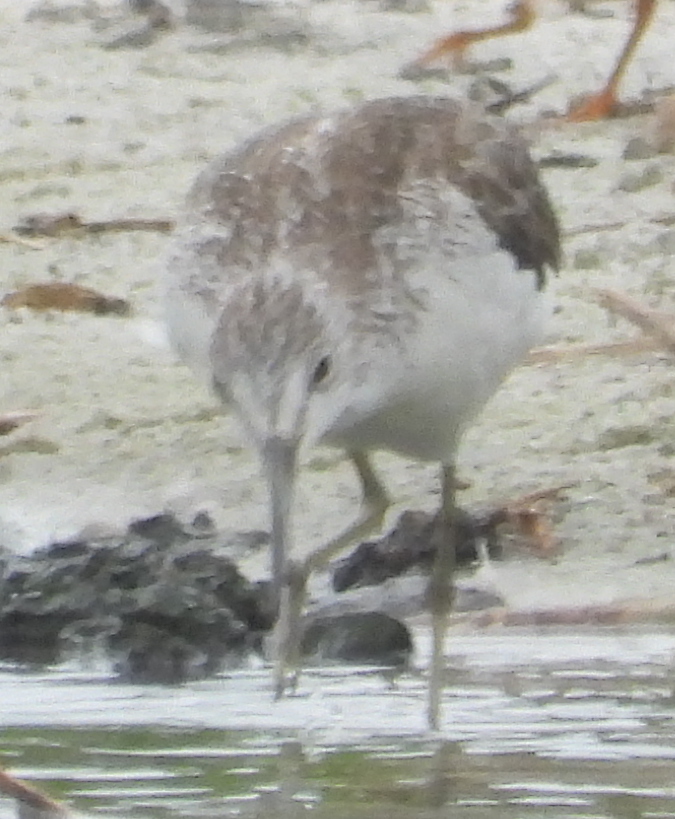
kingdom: Animalia
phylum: Chordata
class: Aves
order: Charadriiformes
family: Scolopacidae
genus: Tringa
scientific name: Tringa nebularia
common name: Common greenshank
